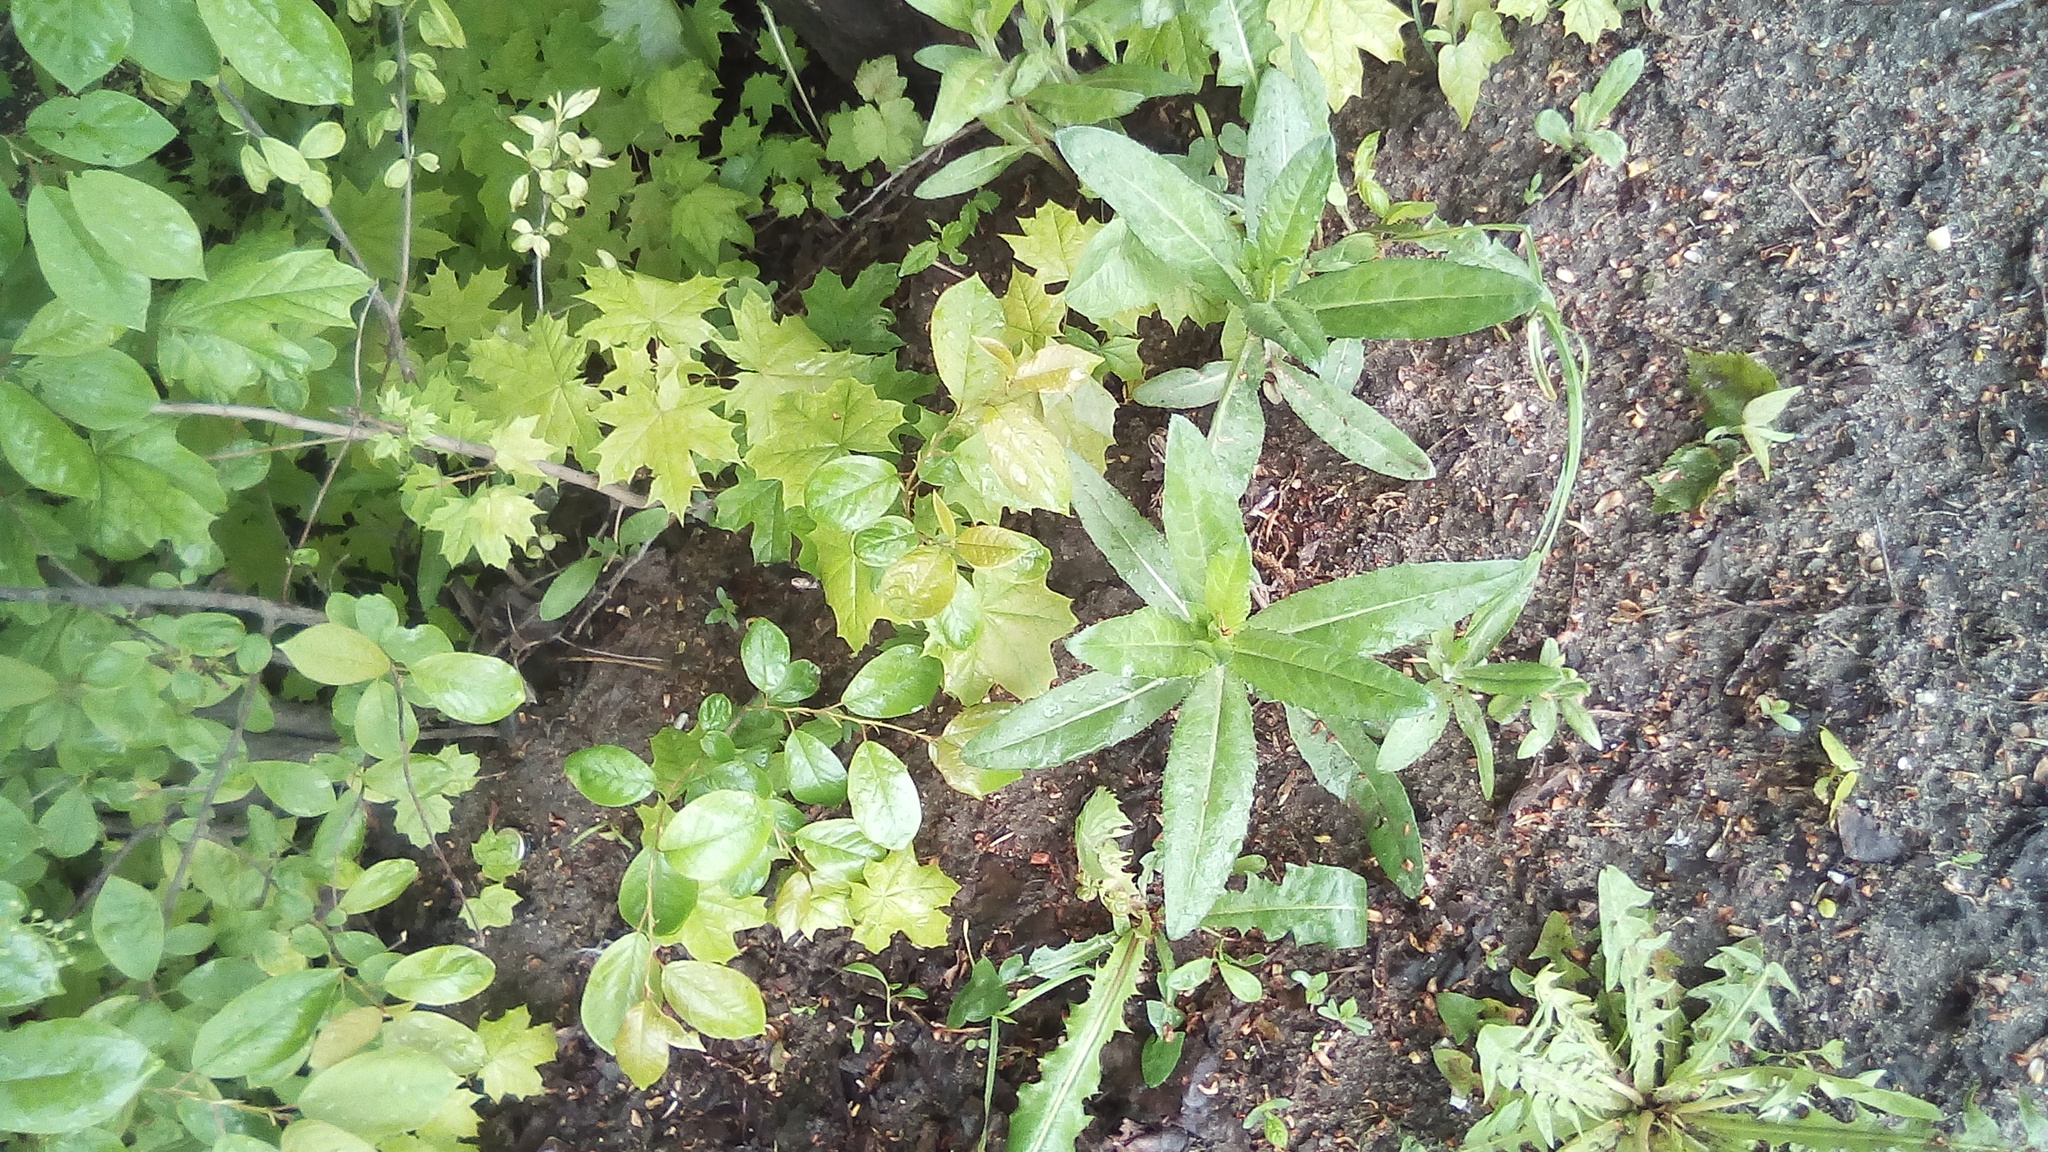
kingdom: Plantae
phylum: Tracheophyta
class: Magnoliopsida
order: Asterales
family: Asteraceae
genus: Cirsium
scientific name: Cirsium arvense
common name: Creeping thistle
